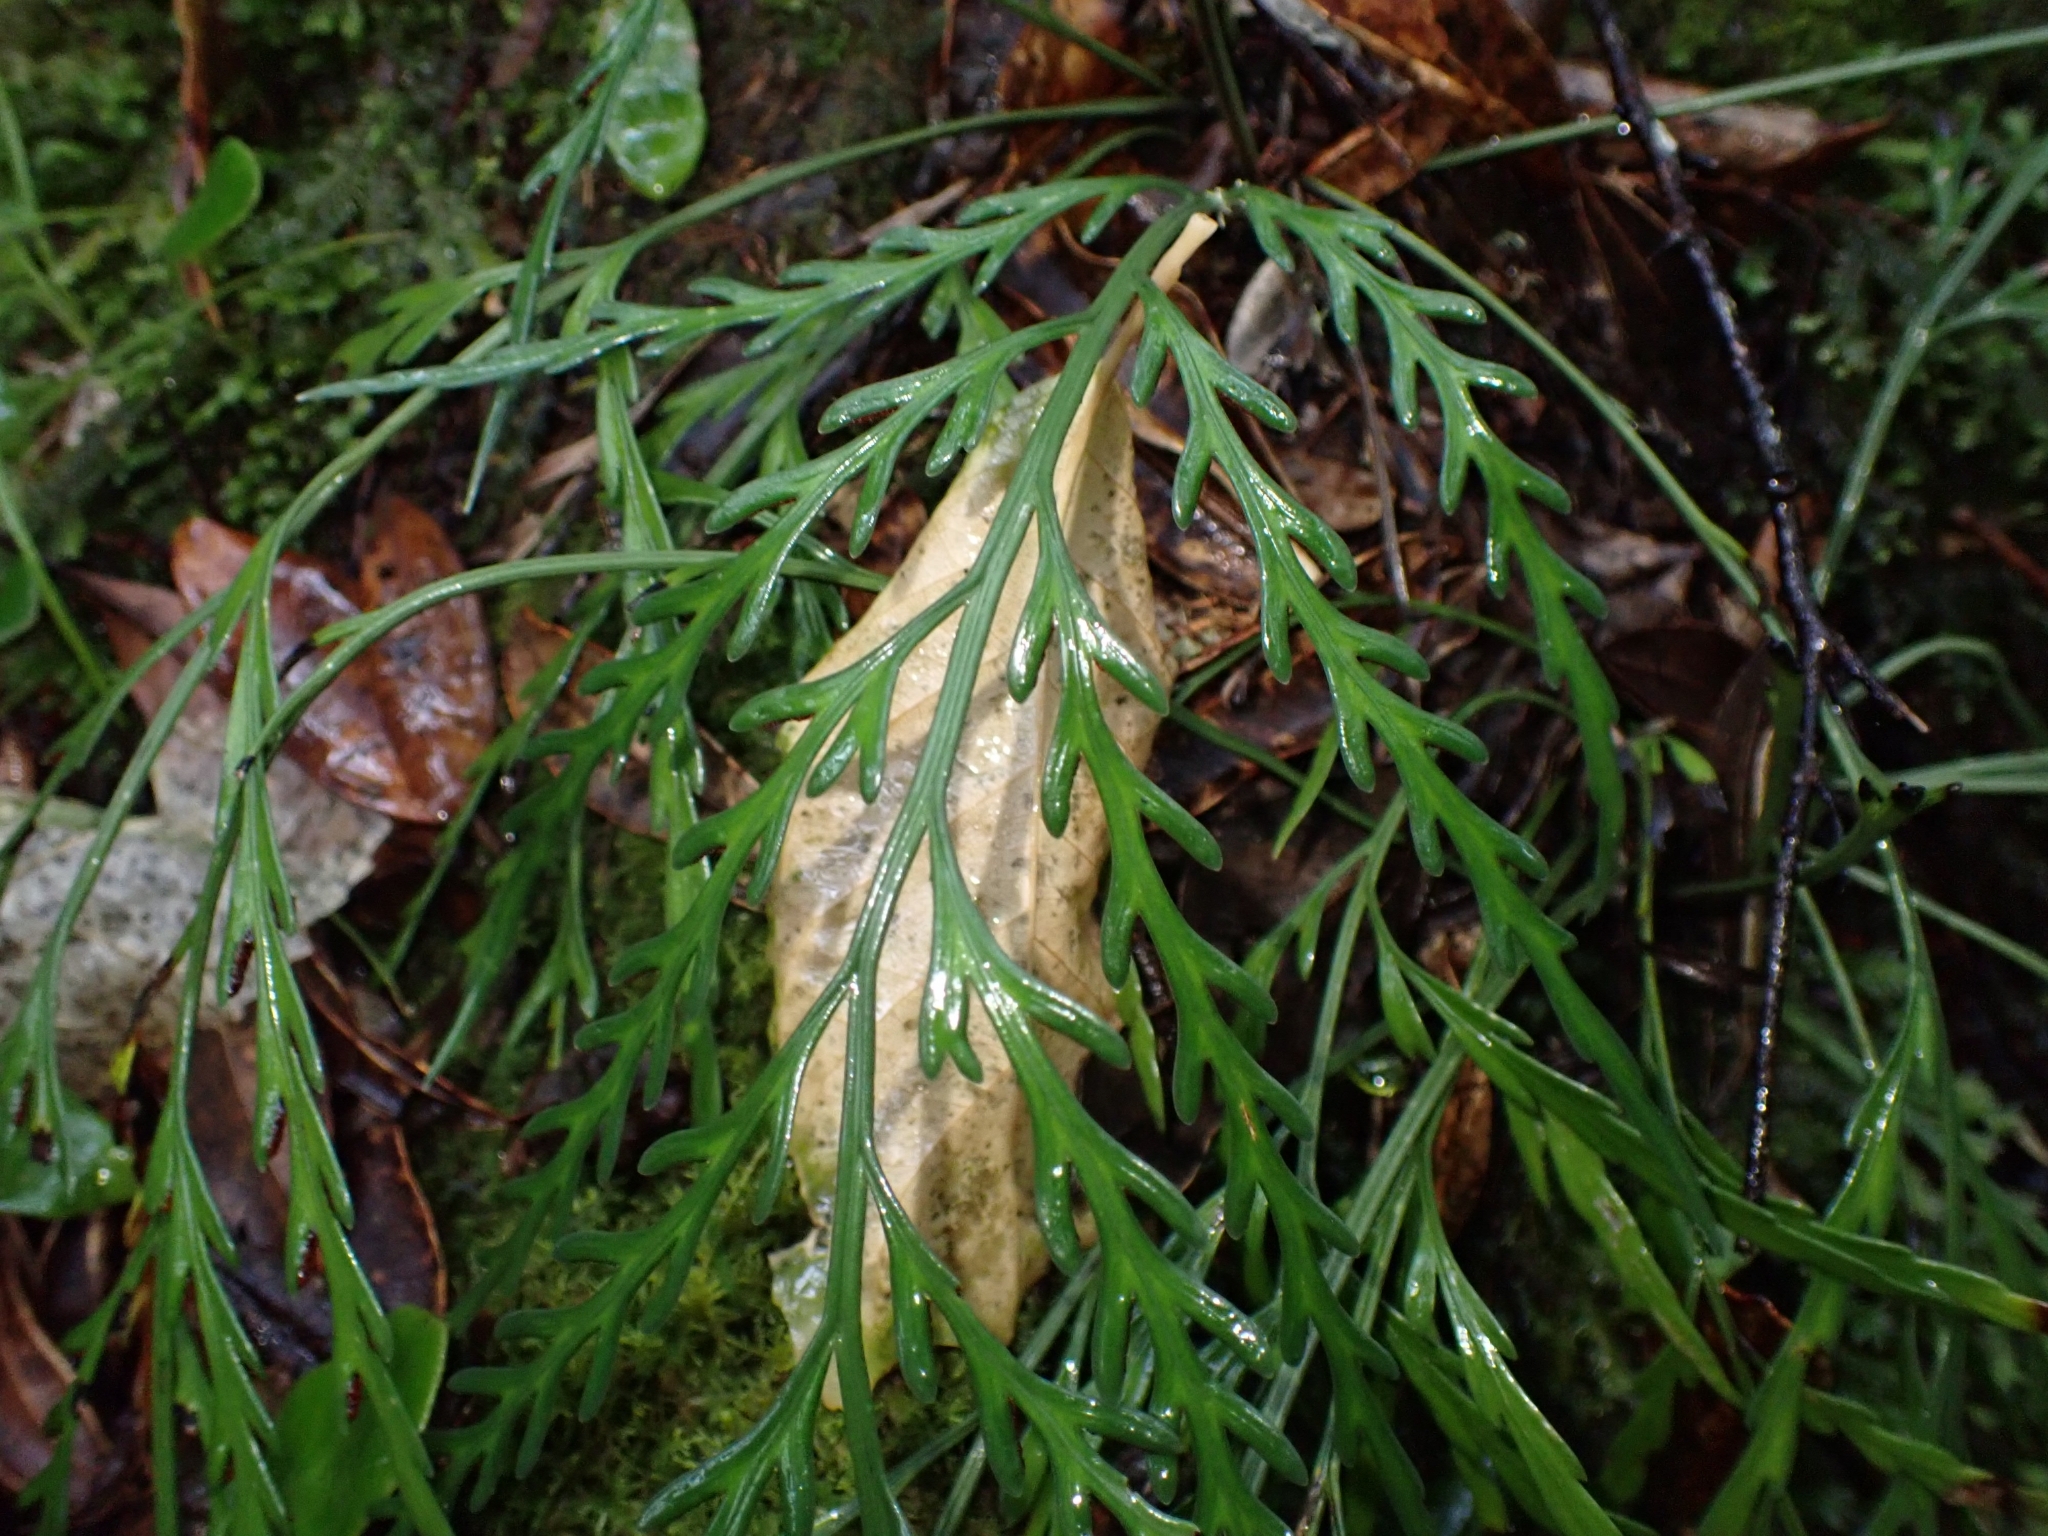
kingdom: Plantae
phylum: Tracheophyta
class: Polypodiopsida
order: Polypodiales
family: Aspleniaceae
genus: Asplenium
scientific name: Asplenium flaccidum
